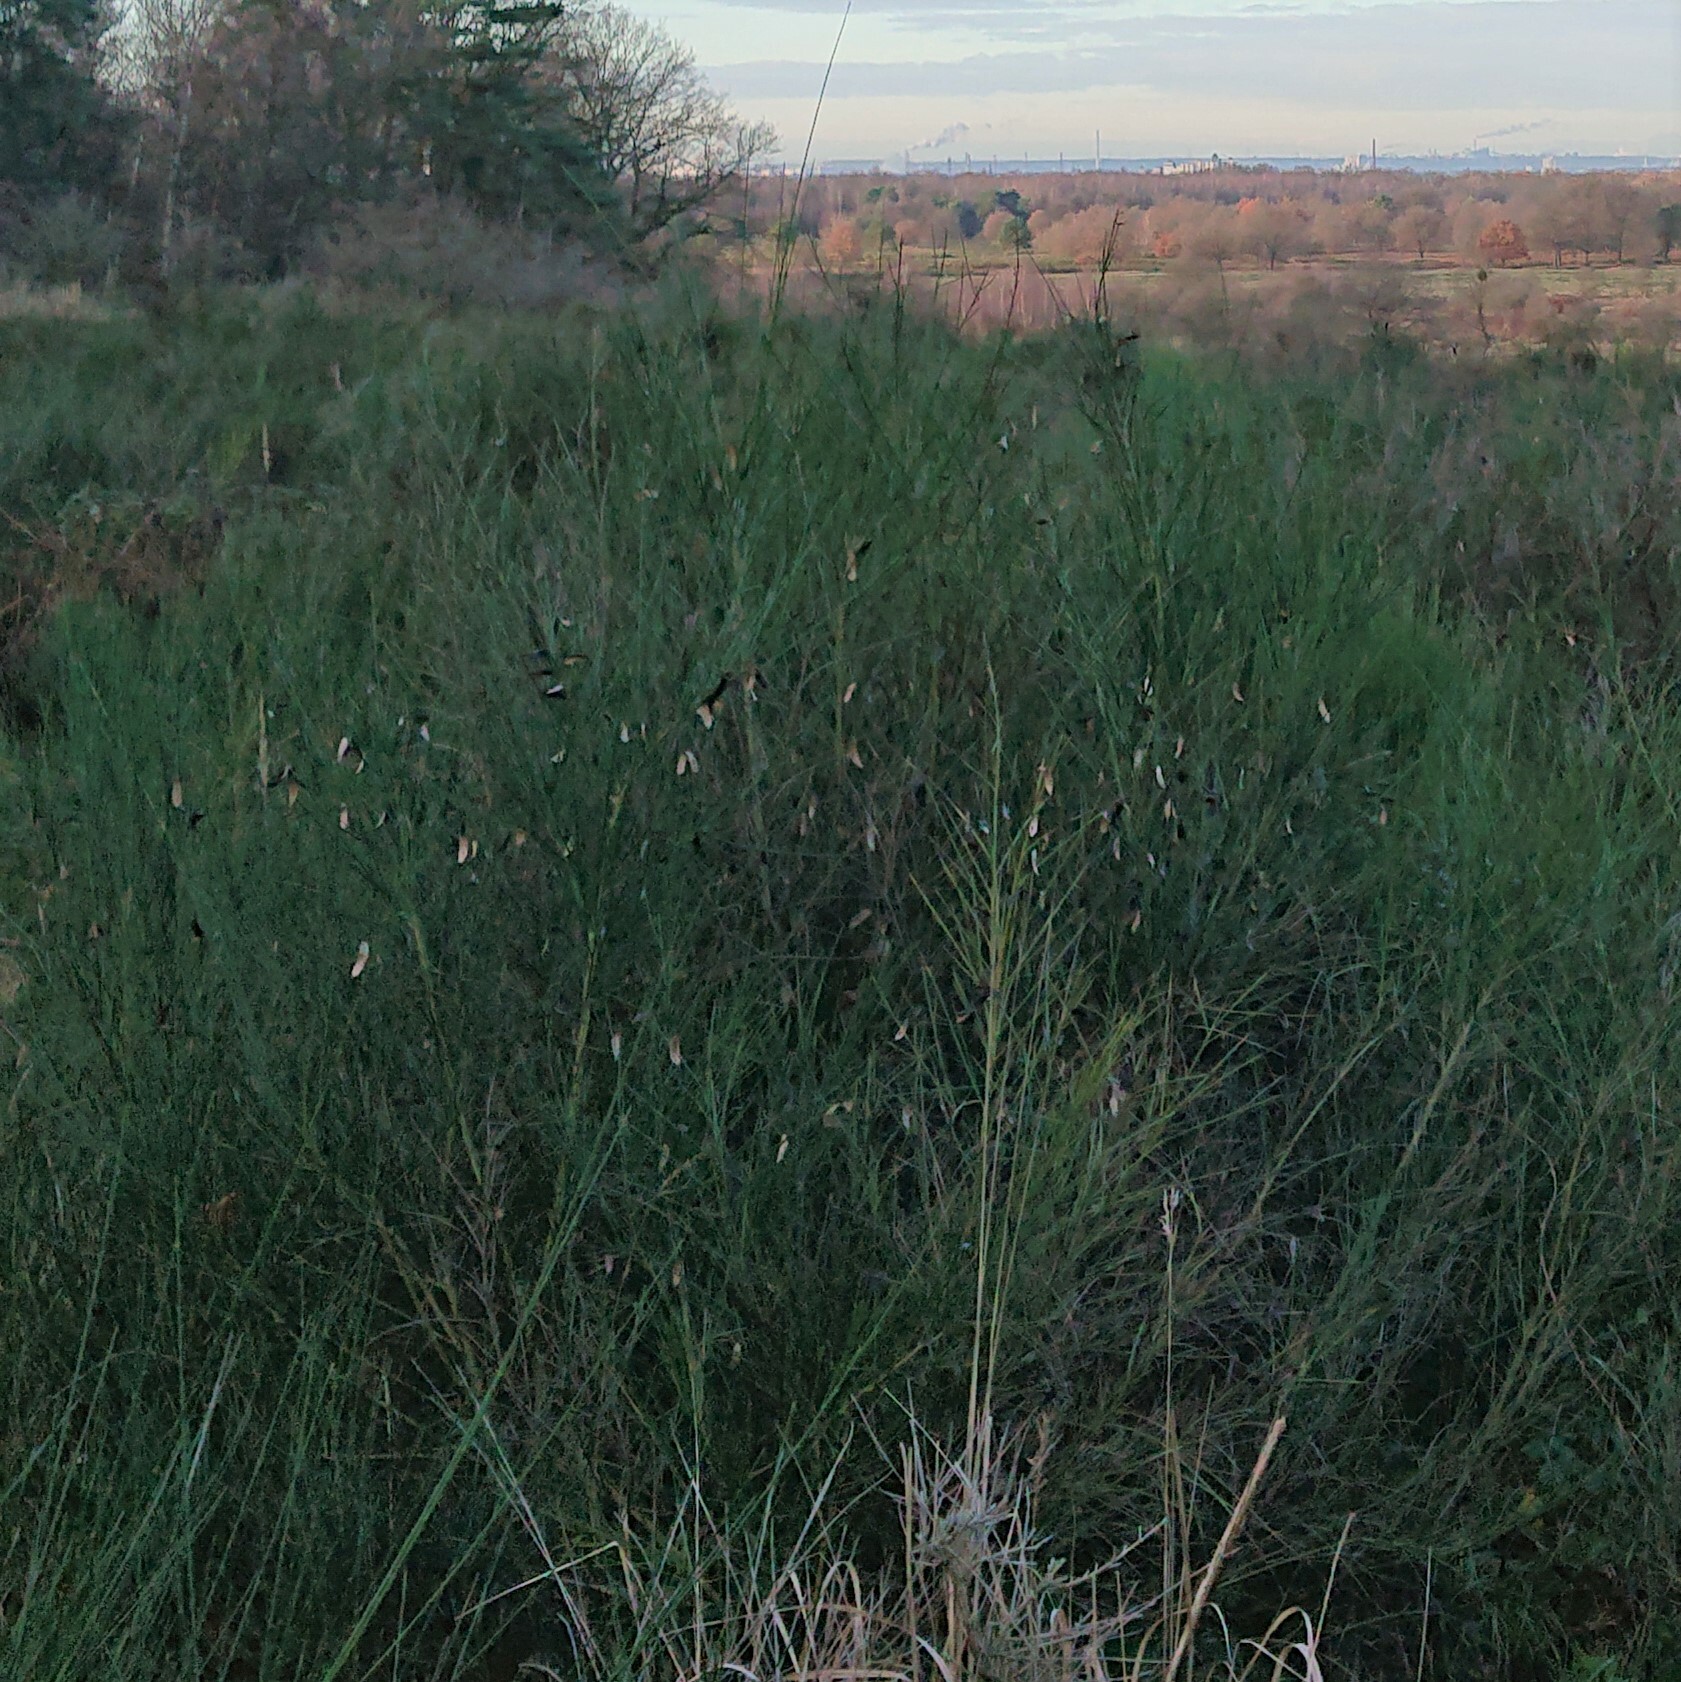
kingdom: Plantae
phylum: Tracheophyta
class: Magnoliopsida
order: Fabales
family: Fabaceae
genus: Cytisus
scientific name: Cytisus scoparius
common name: Scotch broom
